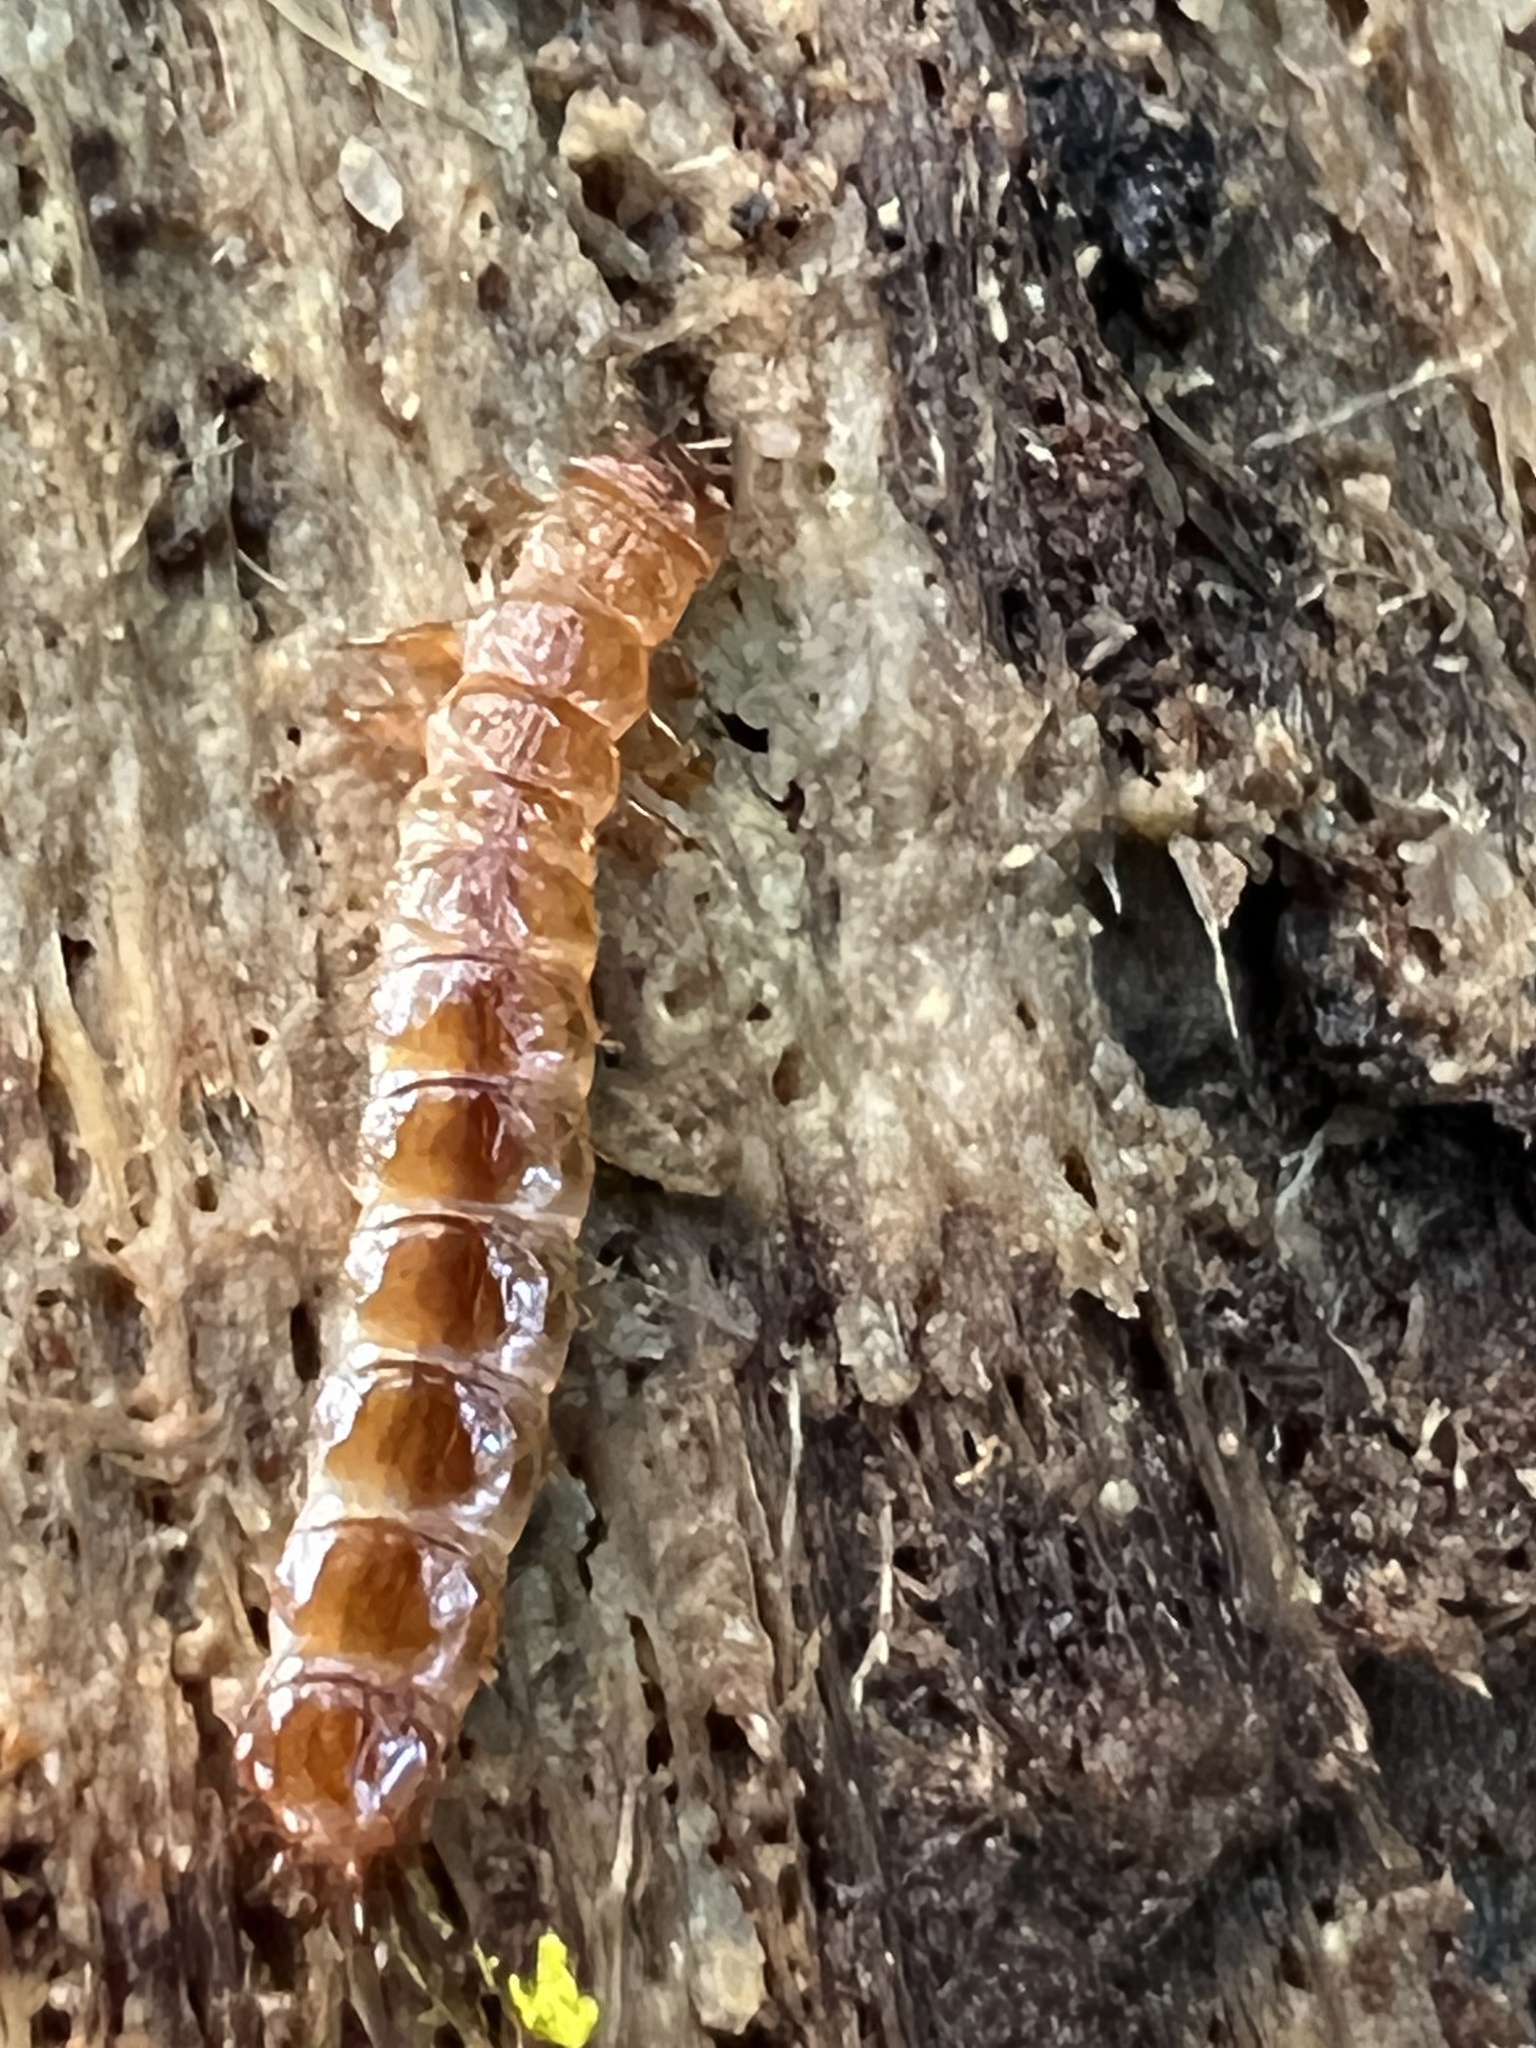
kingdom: Animalia
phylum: Arthropoda
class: Insecta
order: Coleoptera
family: Cucujidae
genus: Cucujus
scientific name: Cucujus clavipes
